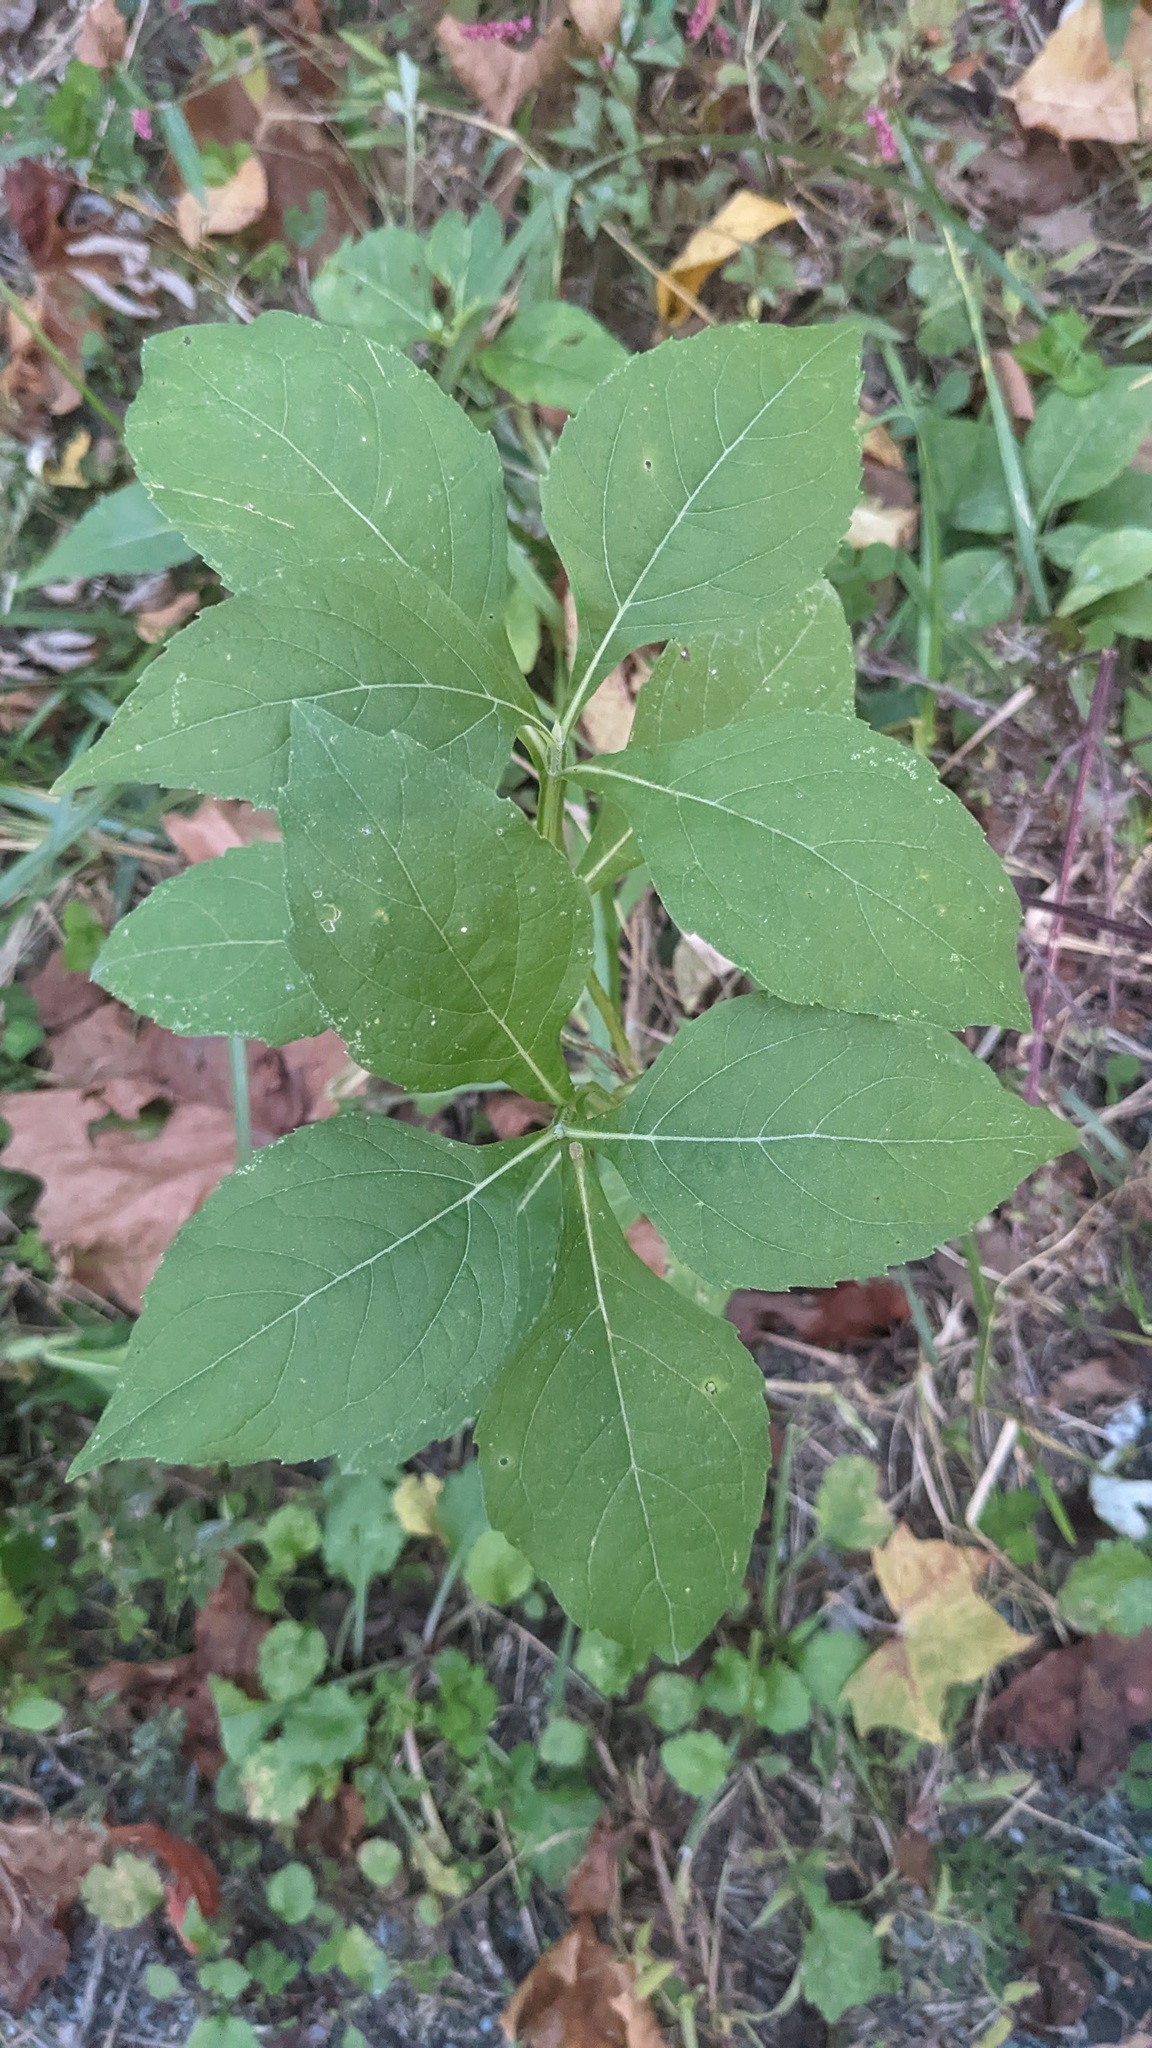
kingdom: Plantae
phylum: Tracheophyta
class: Magnoliopsida
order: Asterales
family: Asteraceae
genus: Verbesina
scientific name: Verbesina occidentalis
